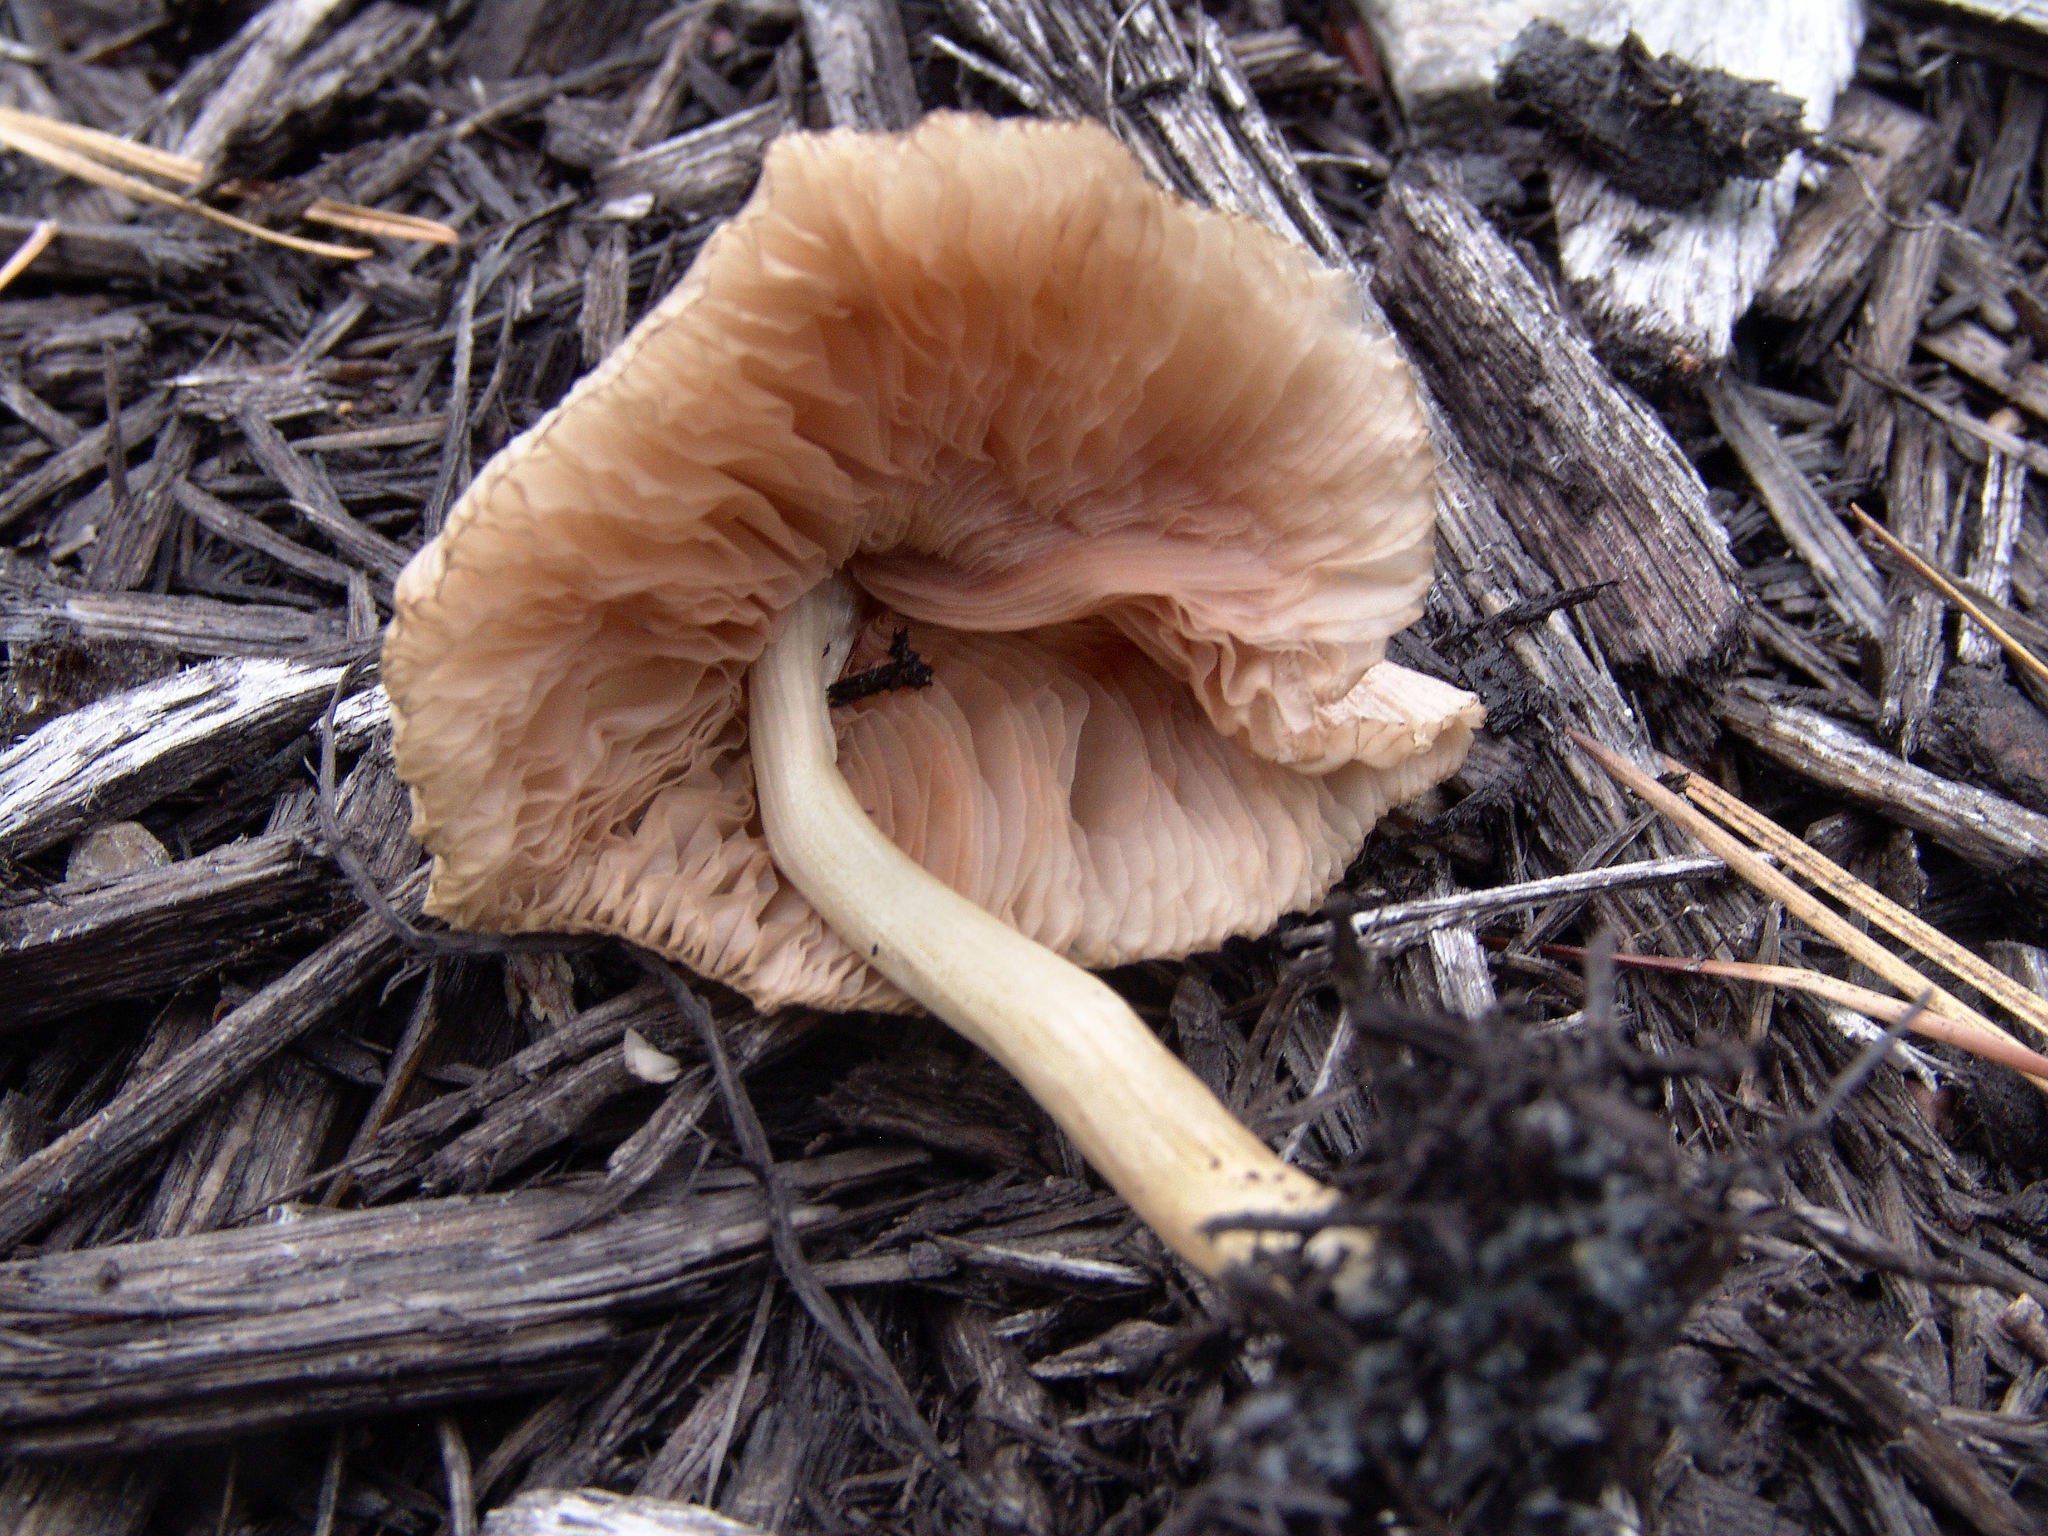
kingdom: Fungi
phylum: Basidiomycota
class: Agaricomycetes
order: Agaricales
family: Pluteaceae
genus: Pluteus
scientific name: Pluteus longistriatus
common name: Pleated pluteus
